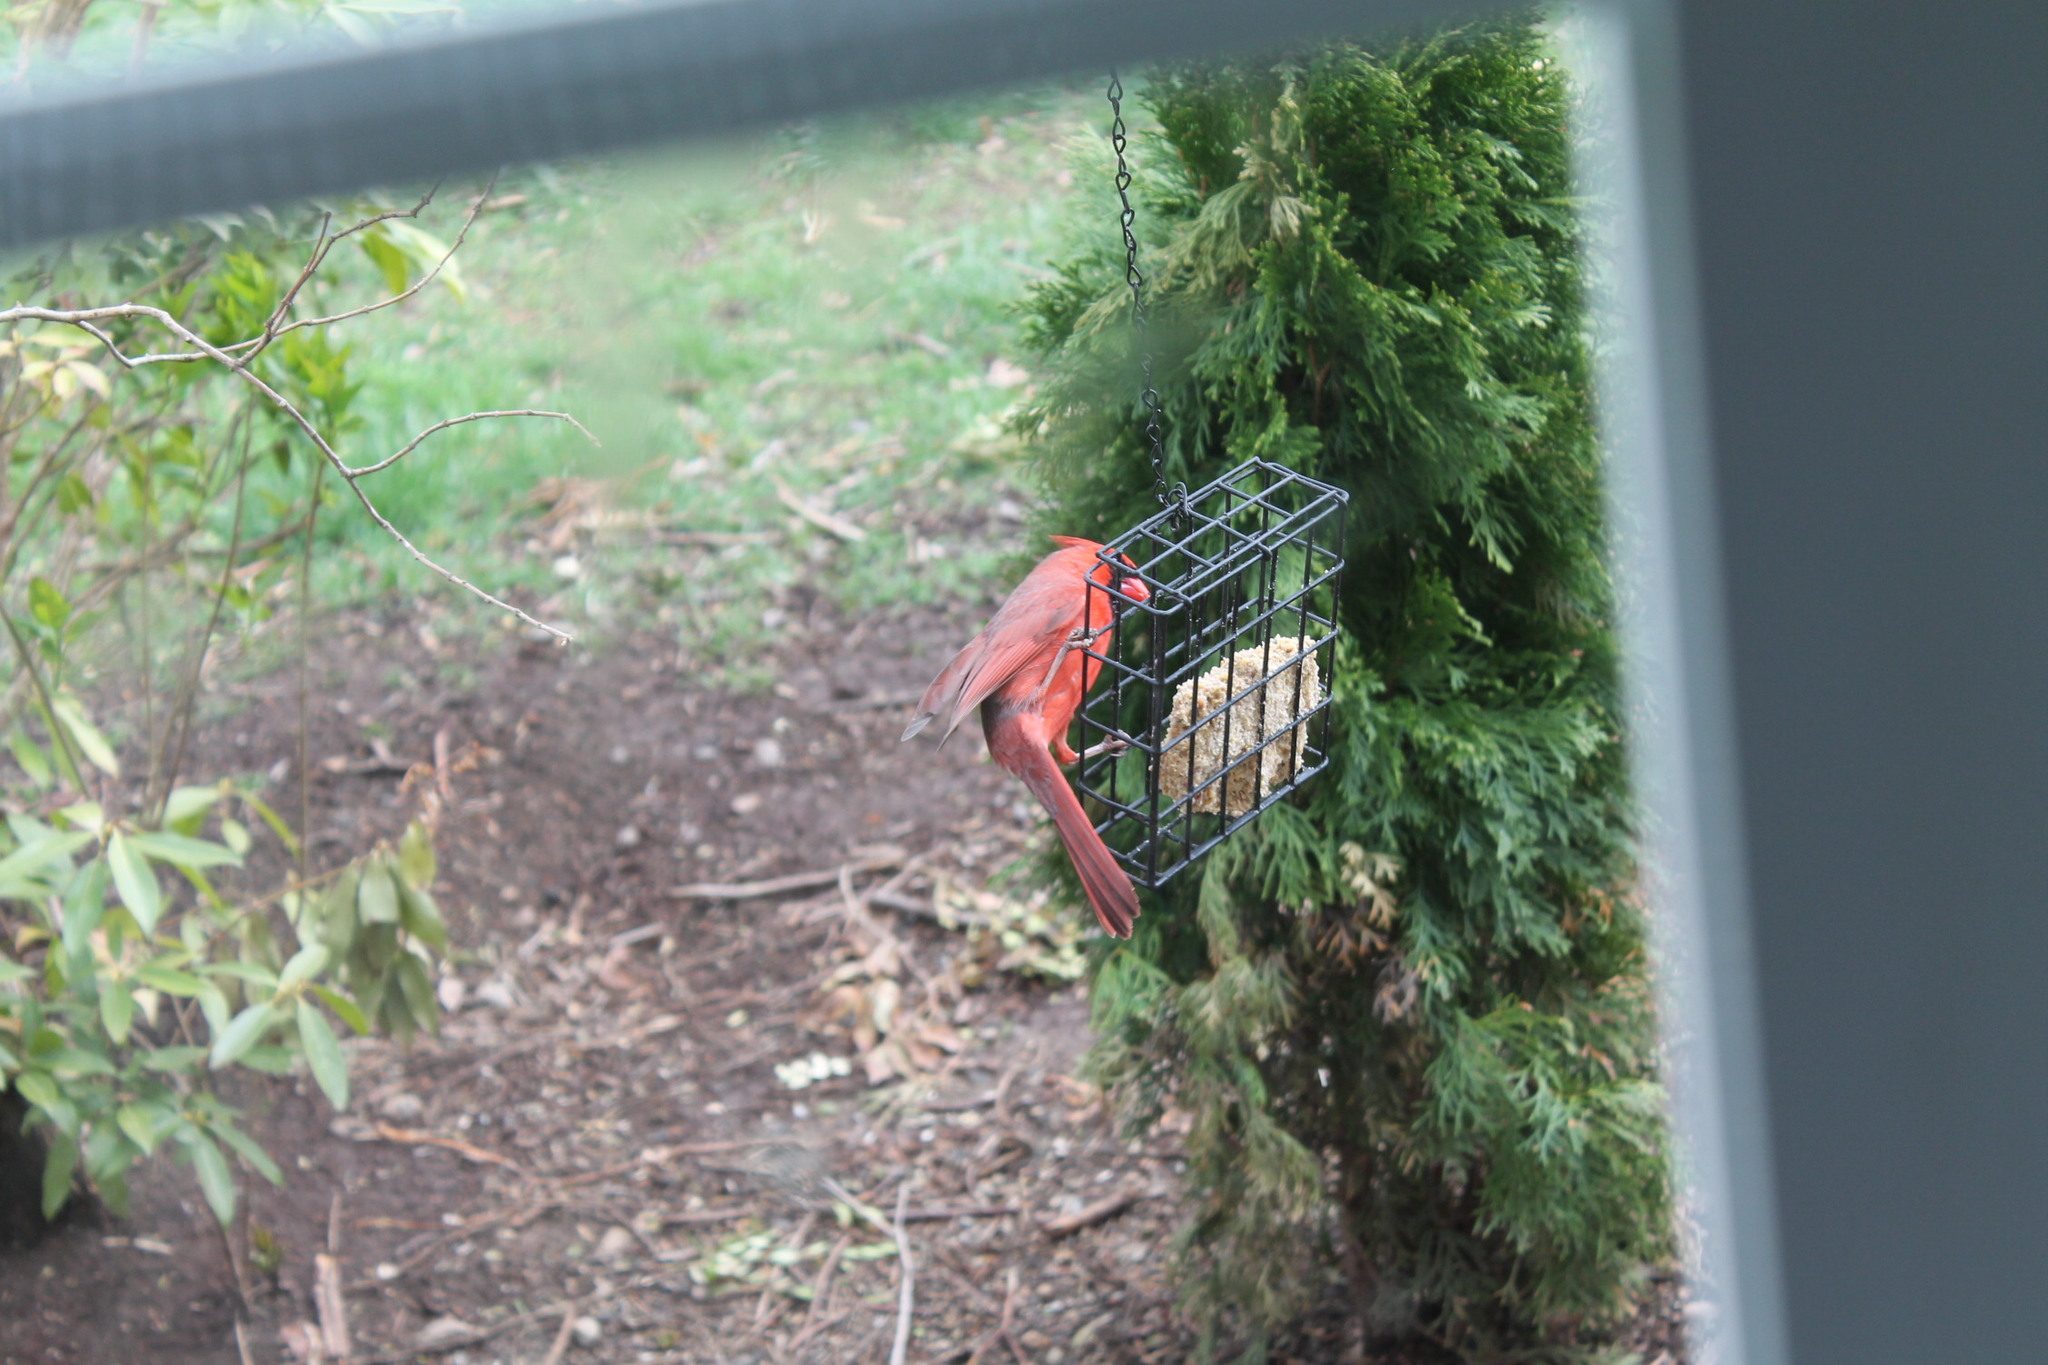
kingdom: Animalia
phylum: Chordata
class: Aves
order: Passeriformes
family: Cardinalidae
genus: Cardinalis
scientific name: Cardinalis cardinalis
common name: Northern cardinal
